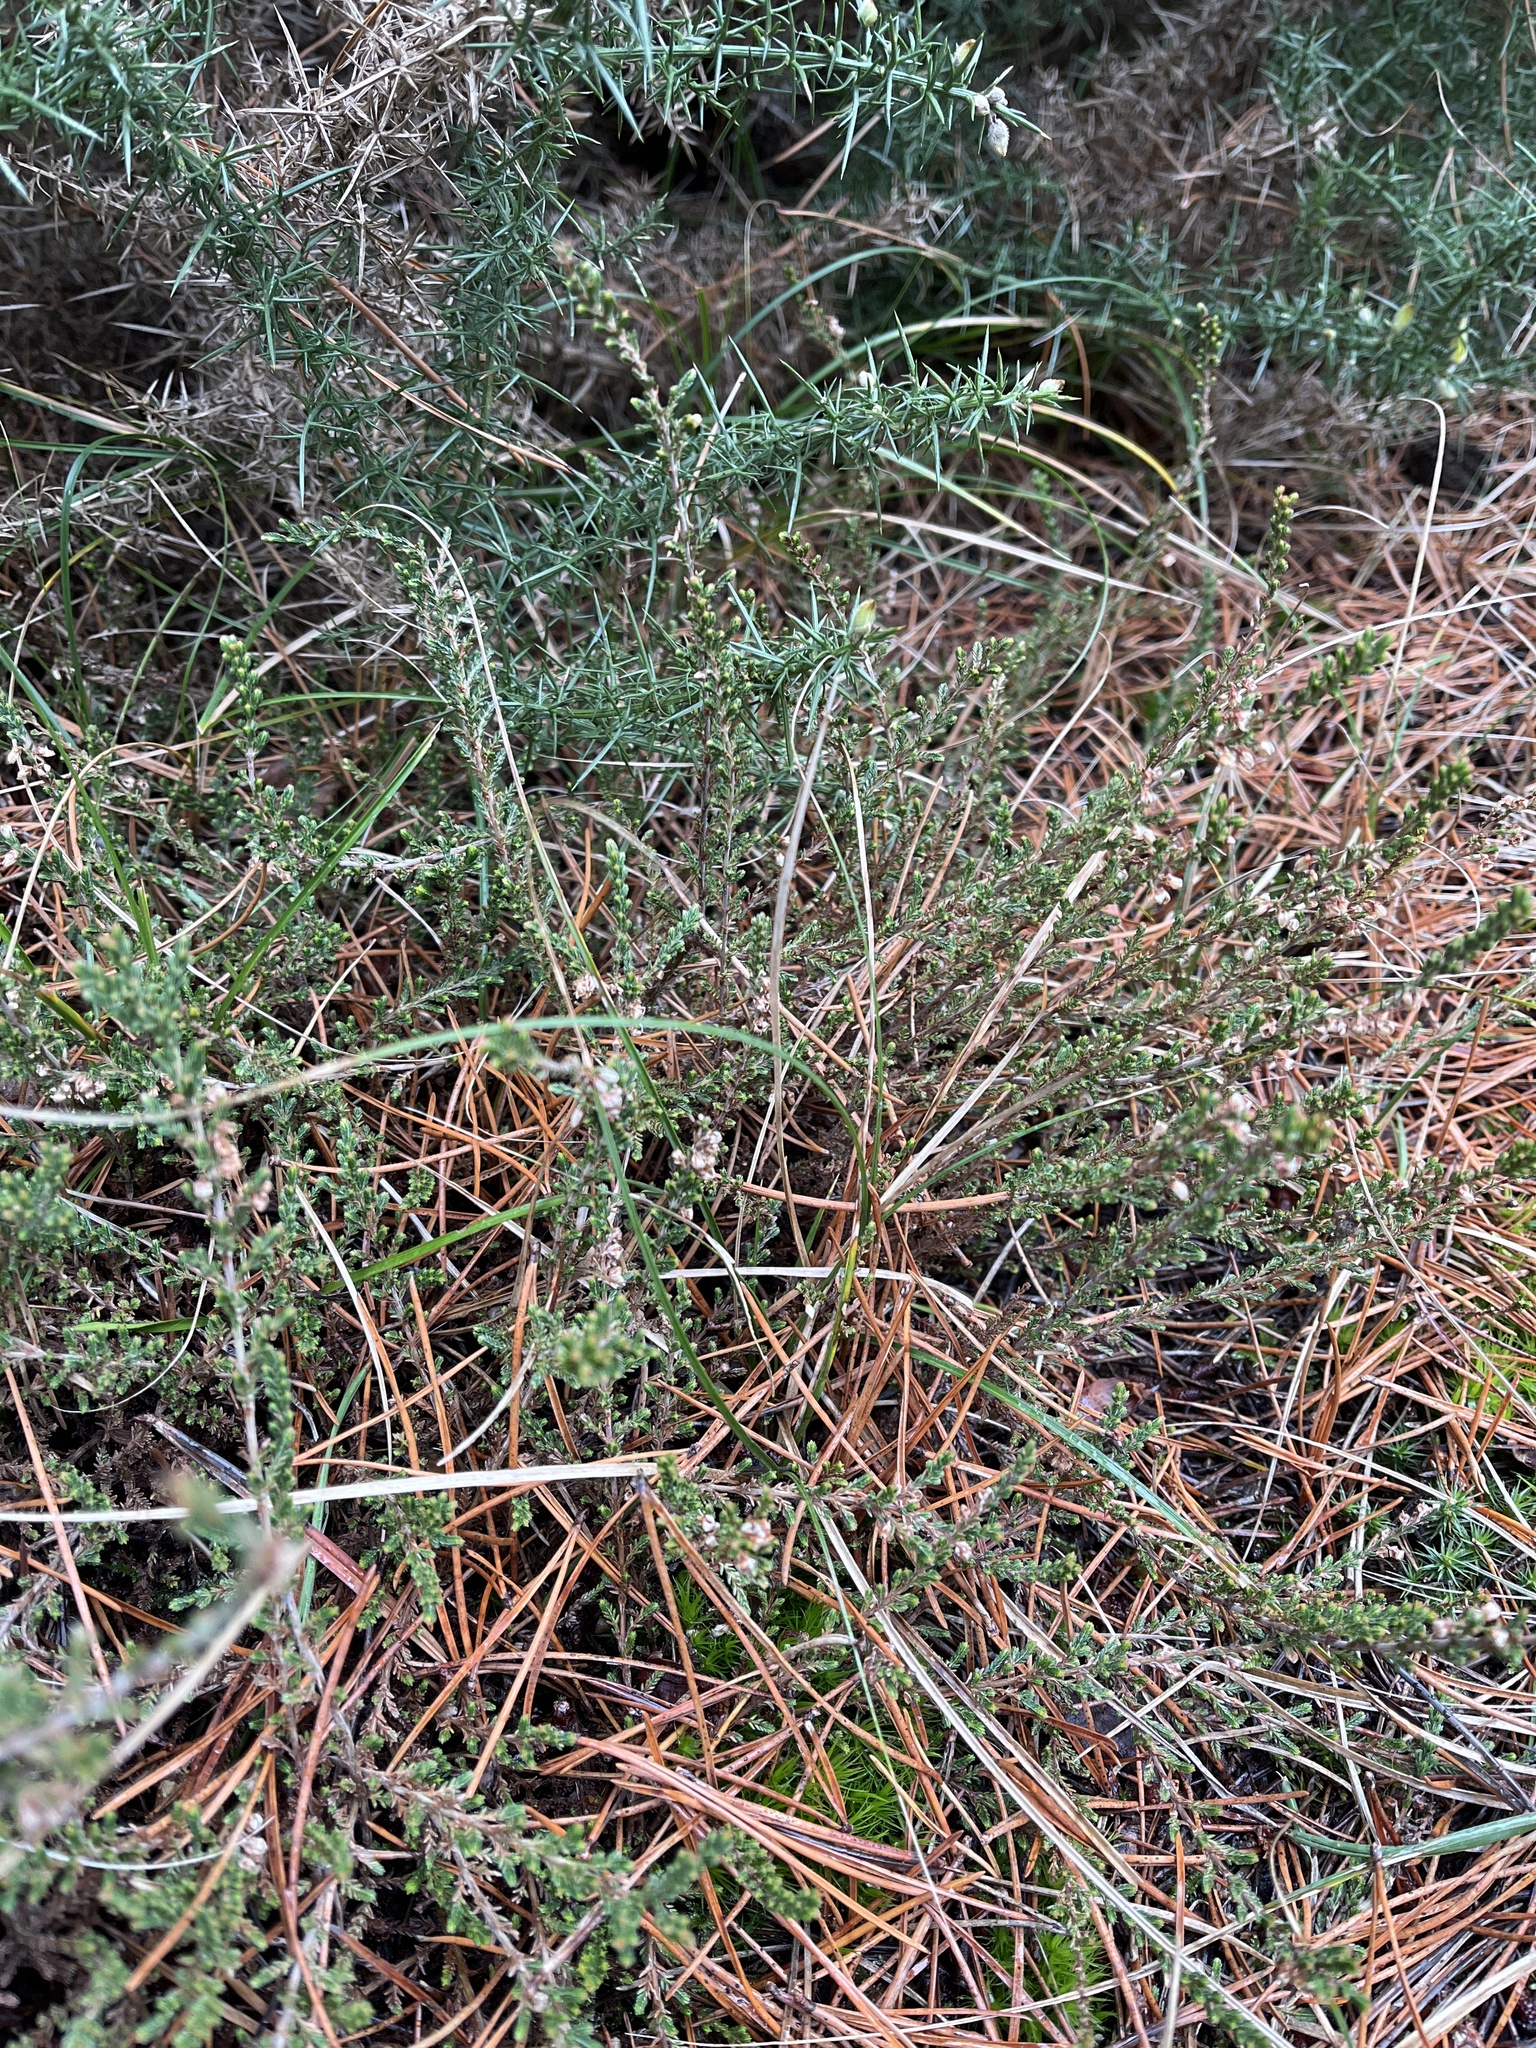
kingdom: Plantae
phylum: Tracheophyta
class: Magnoliopsida
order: Ericales
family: Ericaceae
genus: Calluna
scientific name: Calluna vulgaris
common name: Heather
